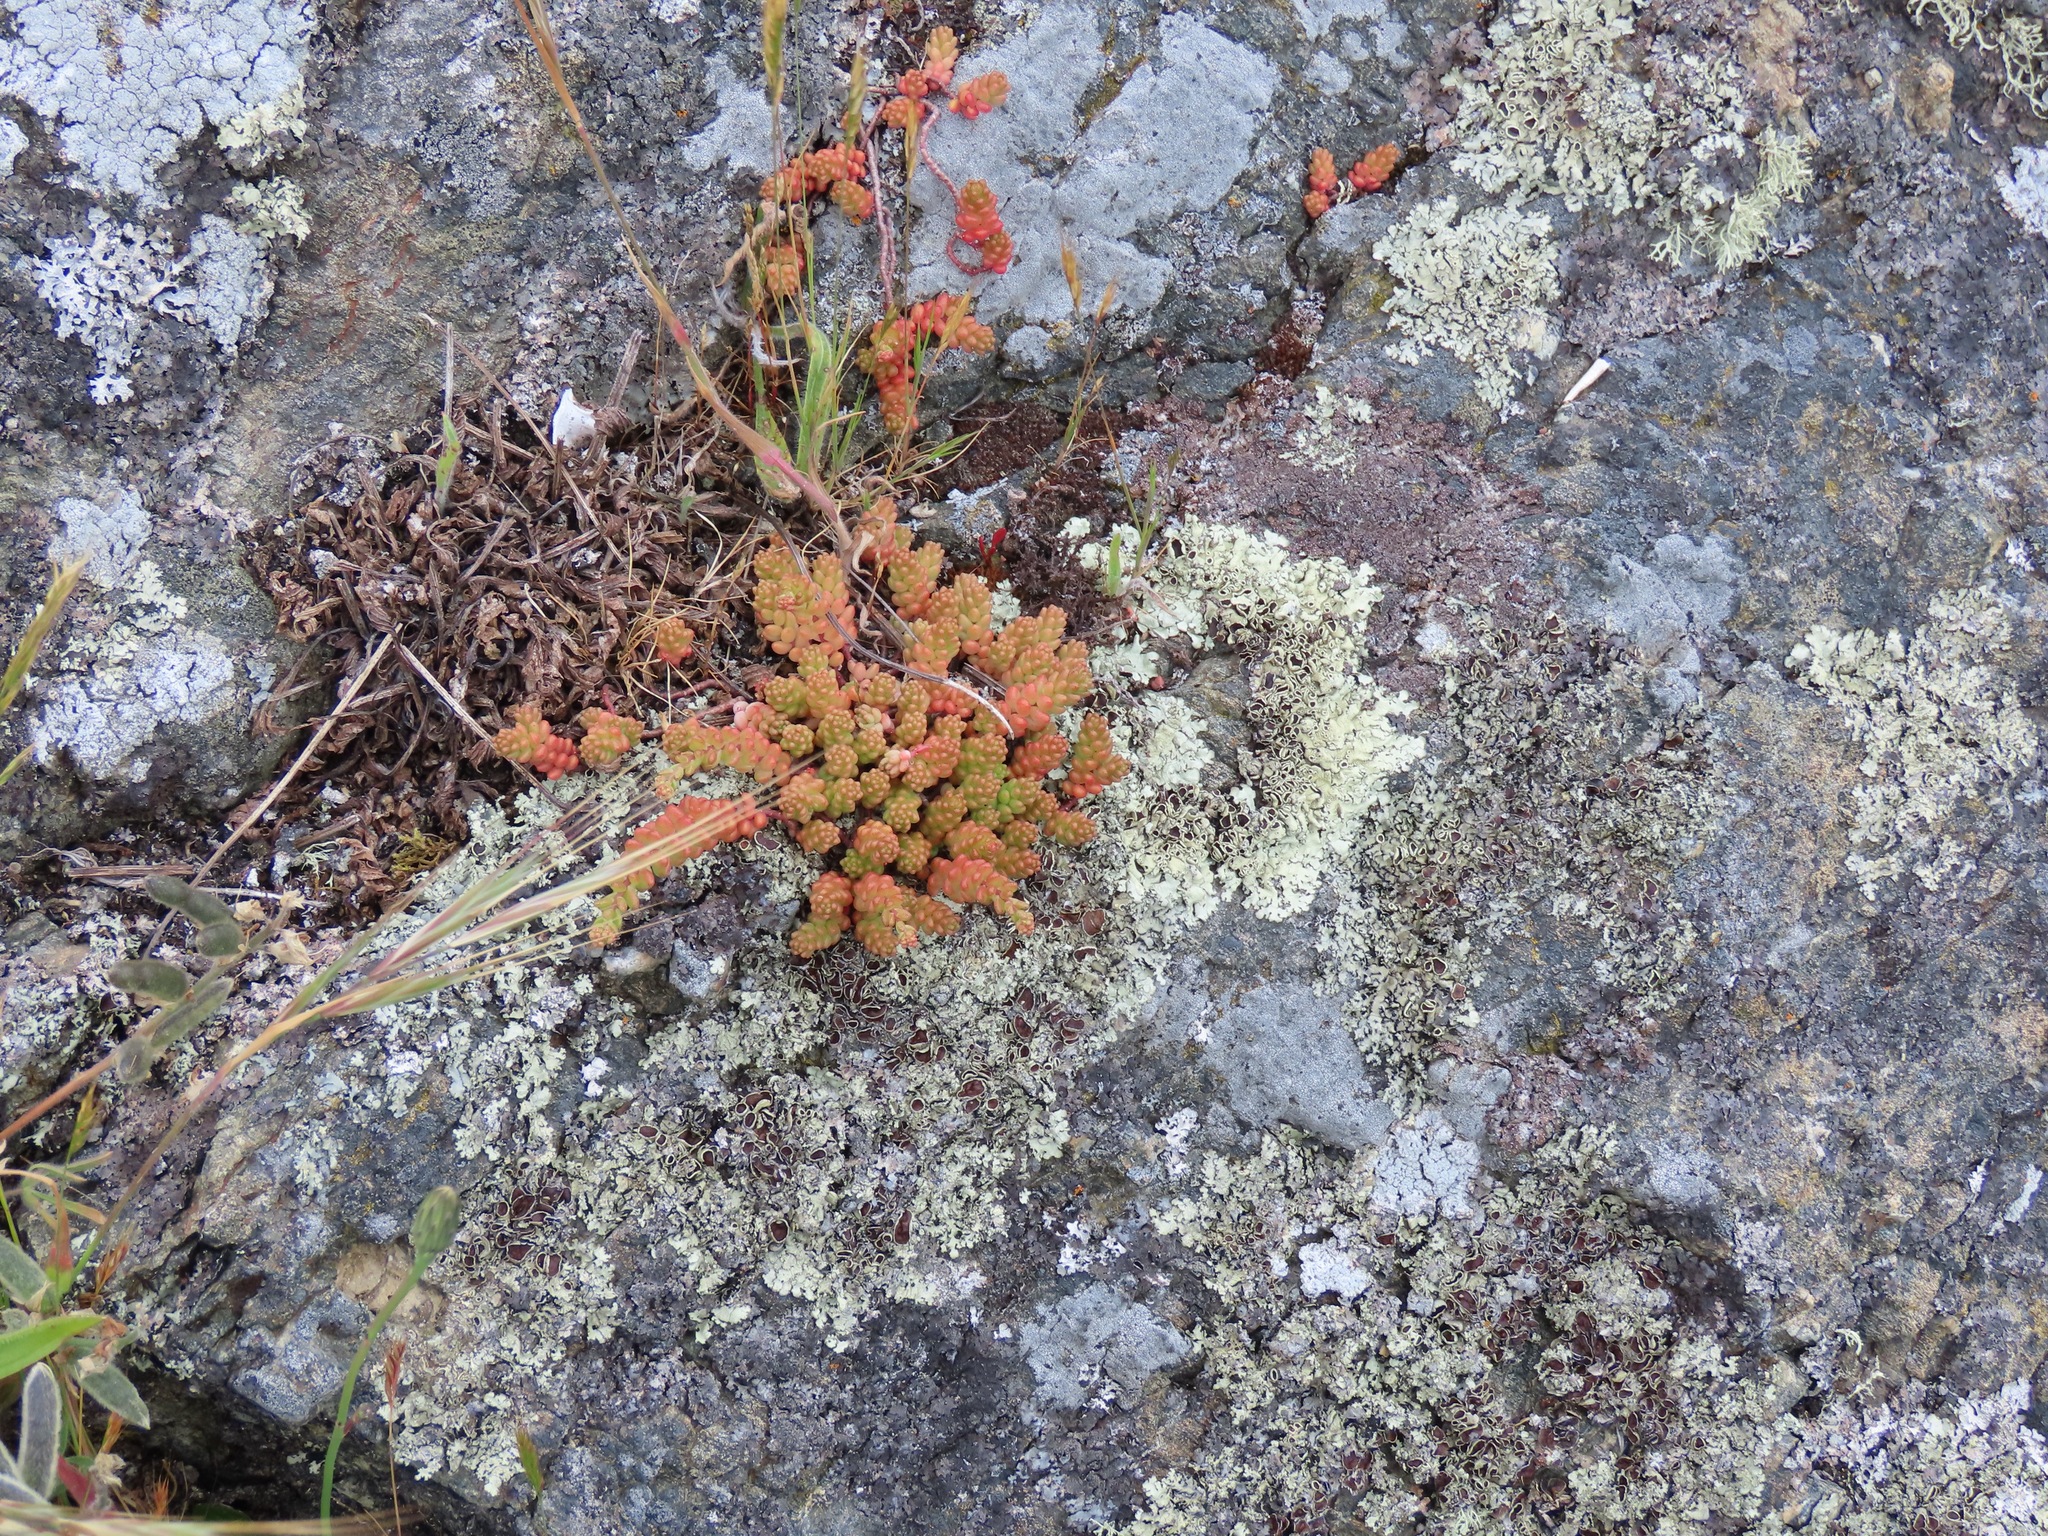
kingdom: Plantae
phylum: Tracheophyta
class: Magnoliopsida
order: Saxifragales
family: Crassulaceae
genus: Sedum
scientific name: Sedum album
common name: White stonecrop
